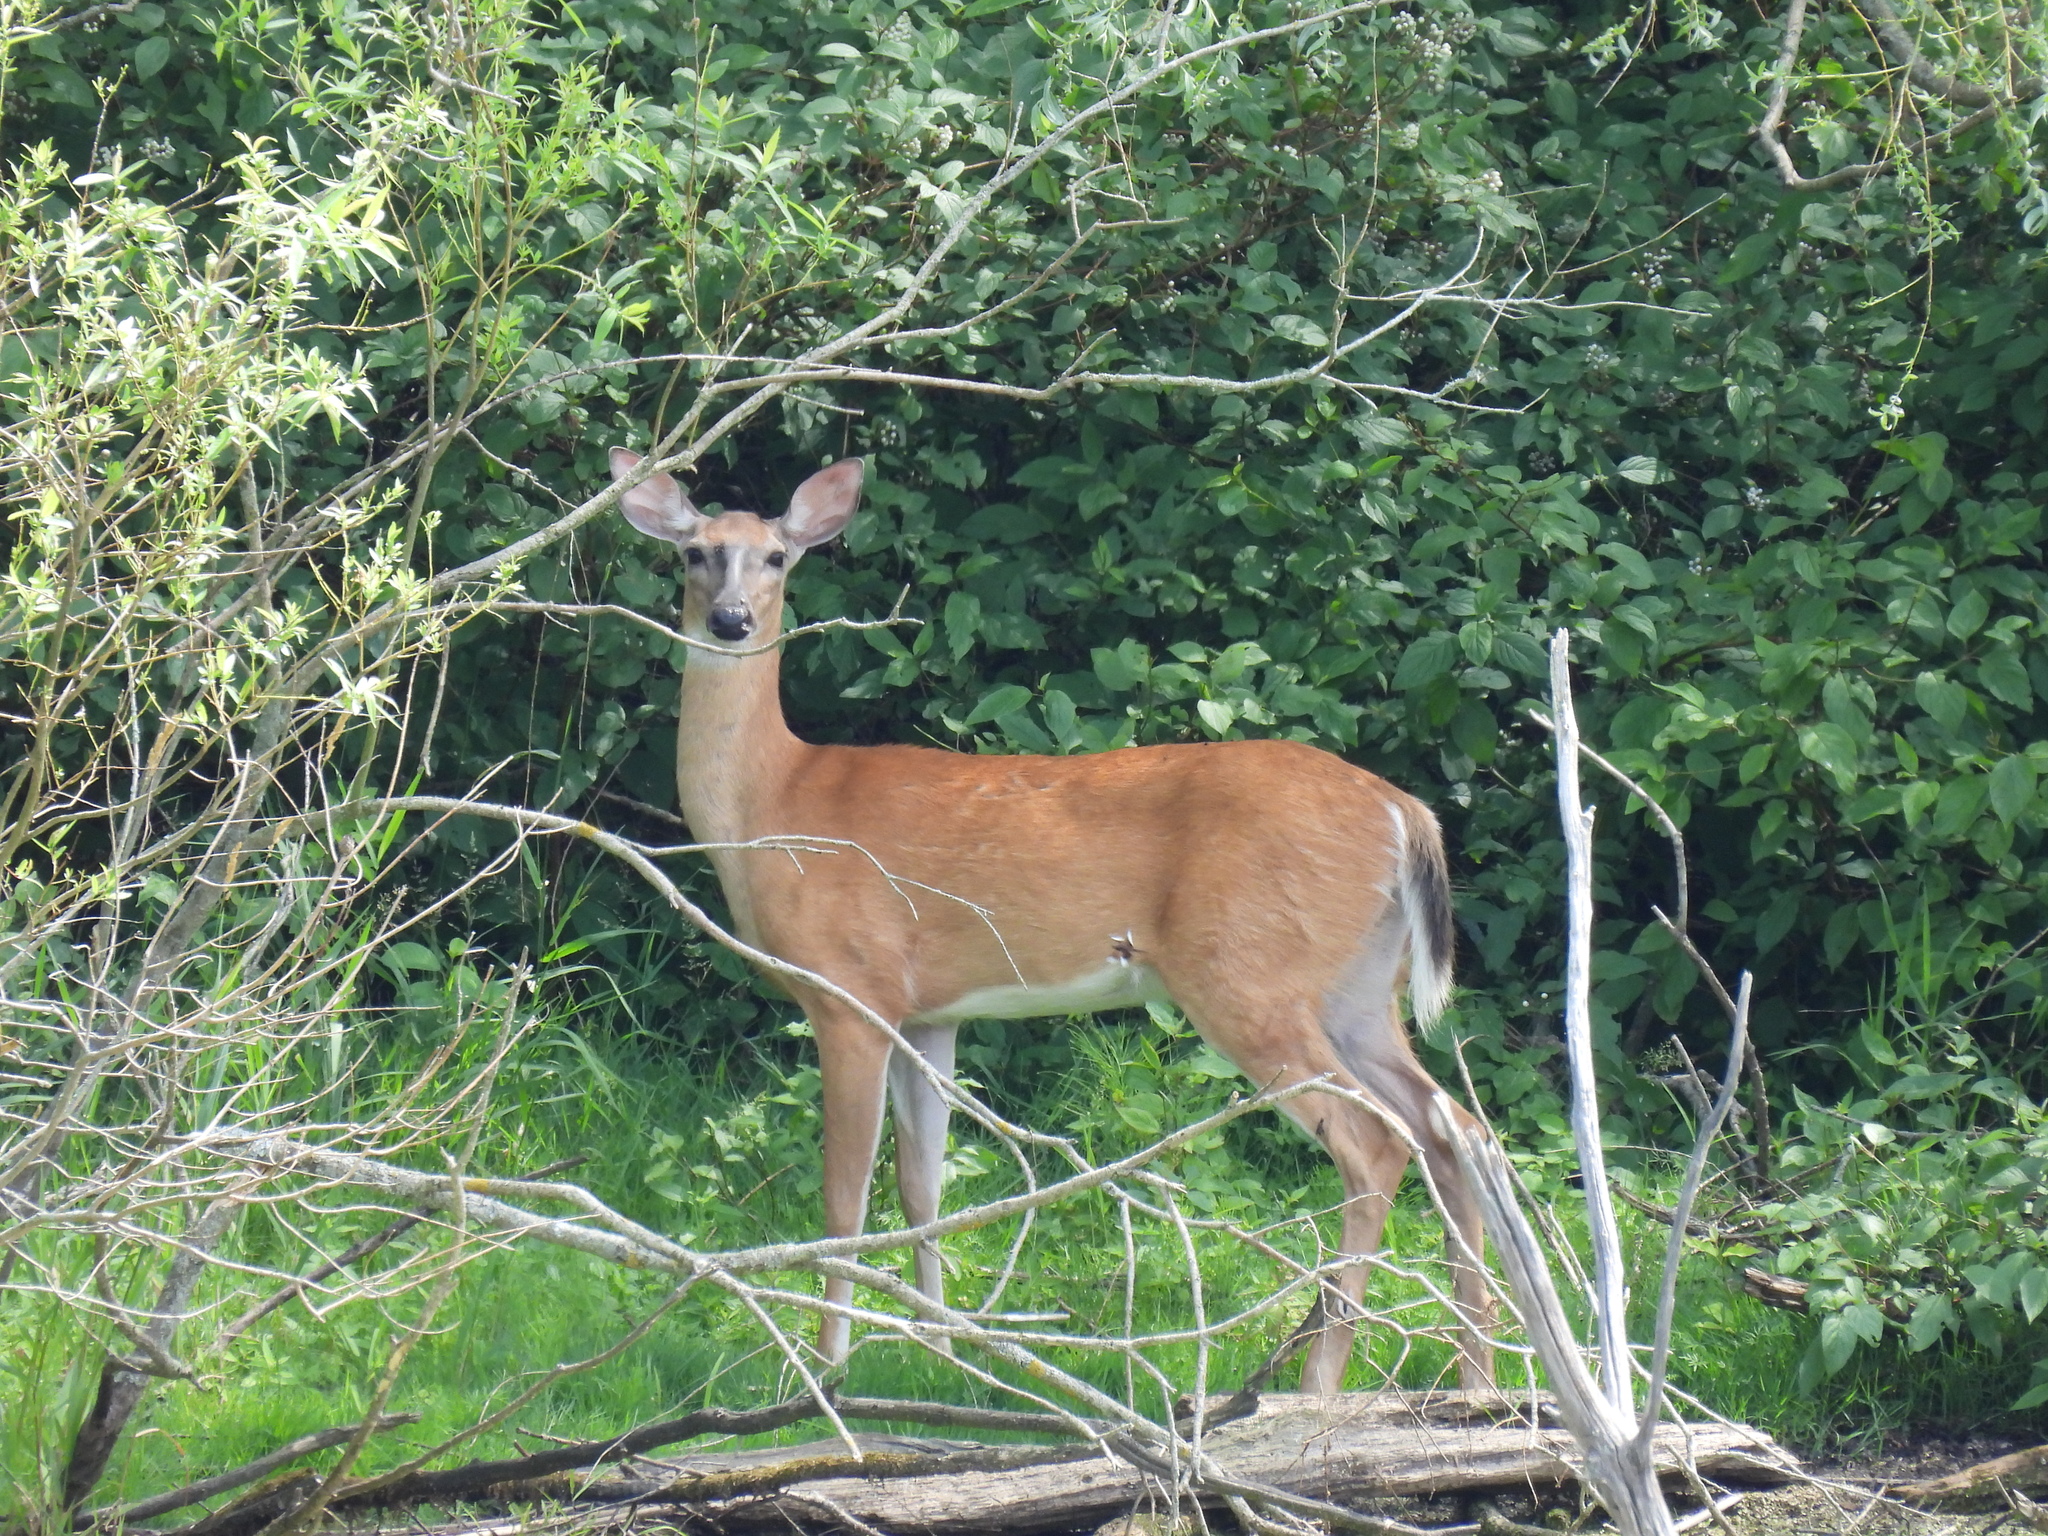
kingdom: Animalia
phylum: Chordata
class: Mammalia
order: Artiodactyla
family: Cervidae
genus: Odocoileus
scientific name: Odocoileus virginianus
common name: White-tailed deer
